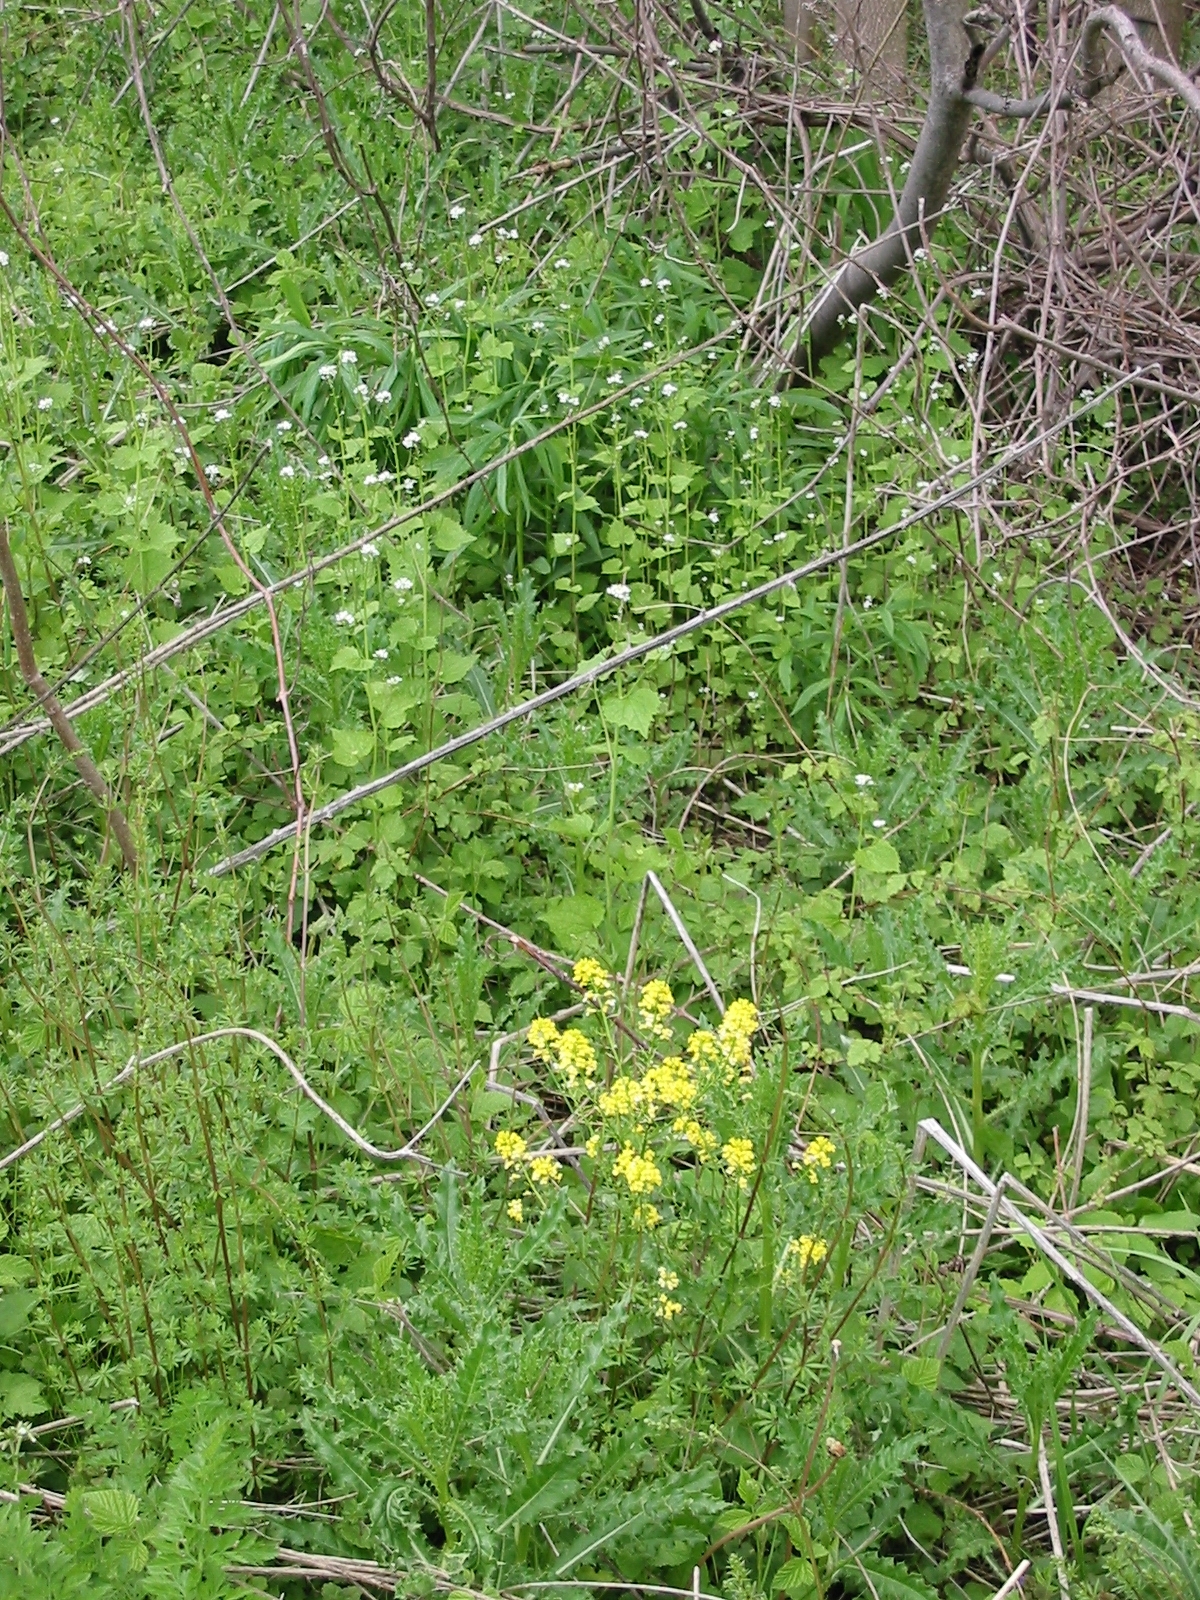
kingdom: Plantae
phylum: Tracheophyta
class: Magnoliopsida
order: Brassicales
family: Brassicaceae
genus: Alliaria
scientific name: Alliaria petiolata
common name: Garlic mustard
